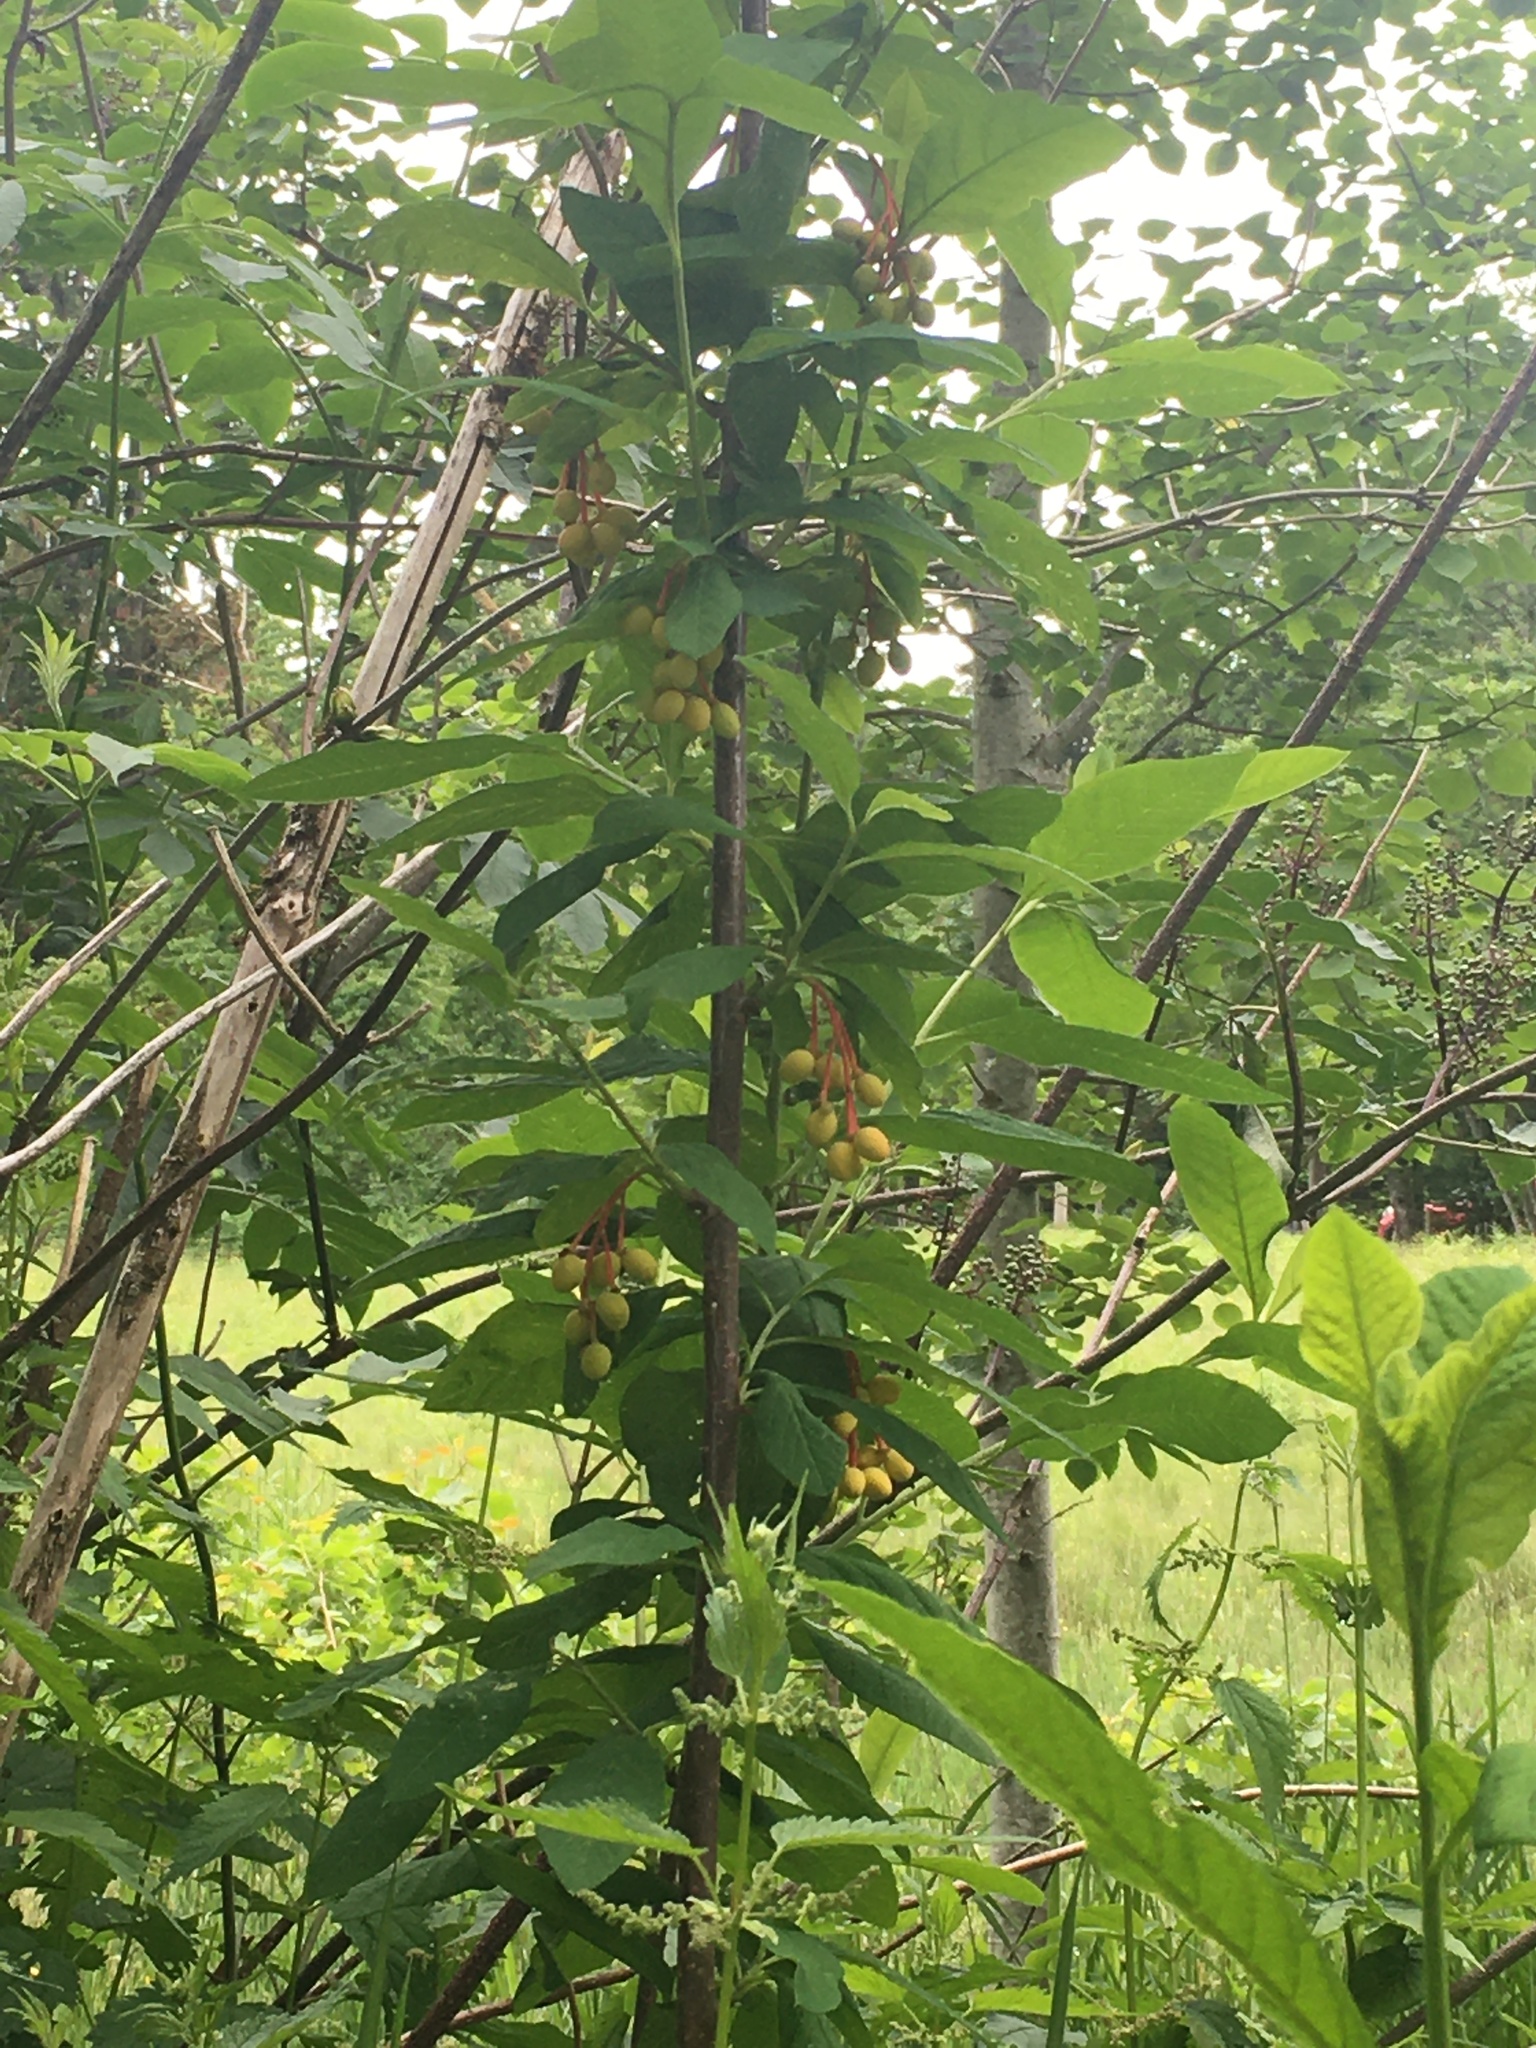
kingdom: Plantae
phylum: Tracheophyta
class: Magnoliopsida
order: Rosales
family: Rosaceae
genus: Oemleria
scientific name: Oemleria cerasiformis
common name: Osoberry
